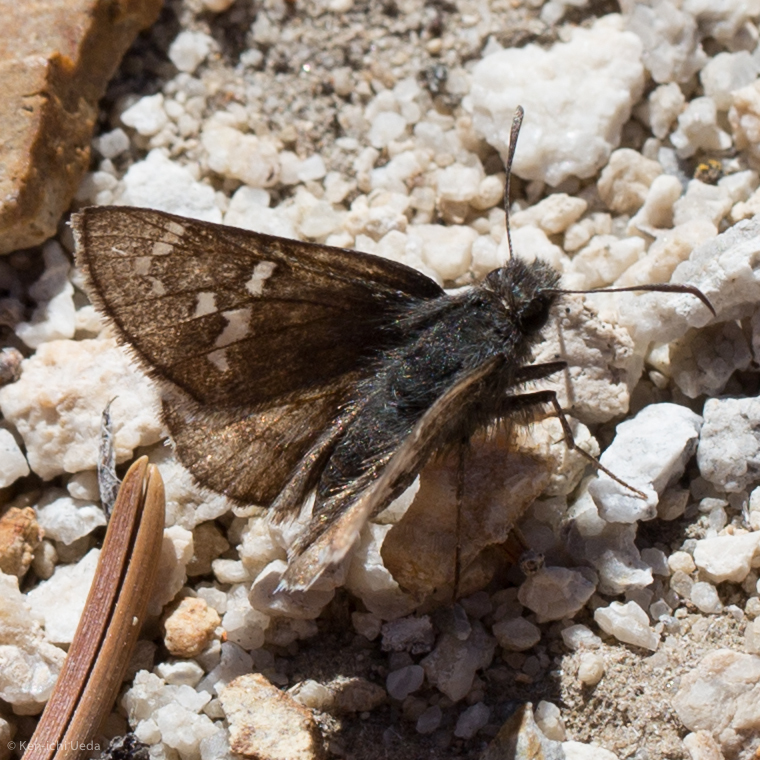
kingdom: Animalia
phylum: Arthropoda
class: Insecta
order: Lepidoptera
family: Hesperiidae
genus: Thorybes
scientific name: Thorybes mexicana
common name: Mexican cloudywing
